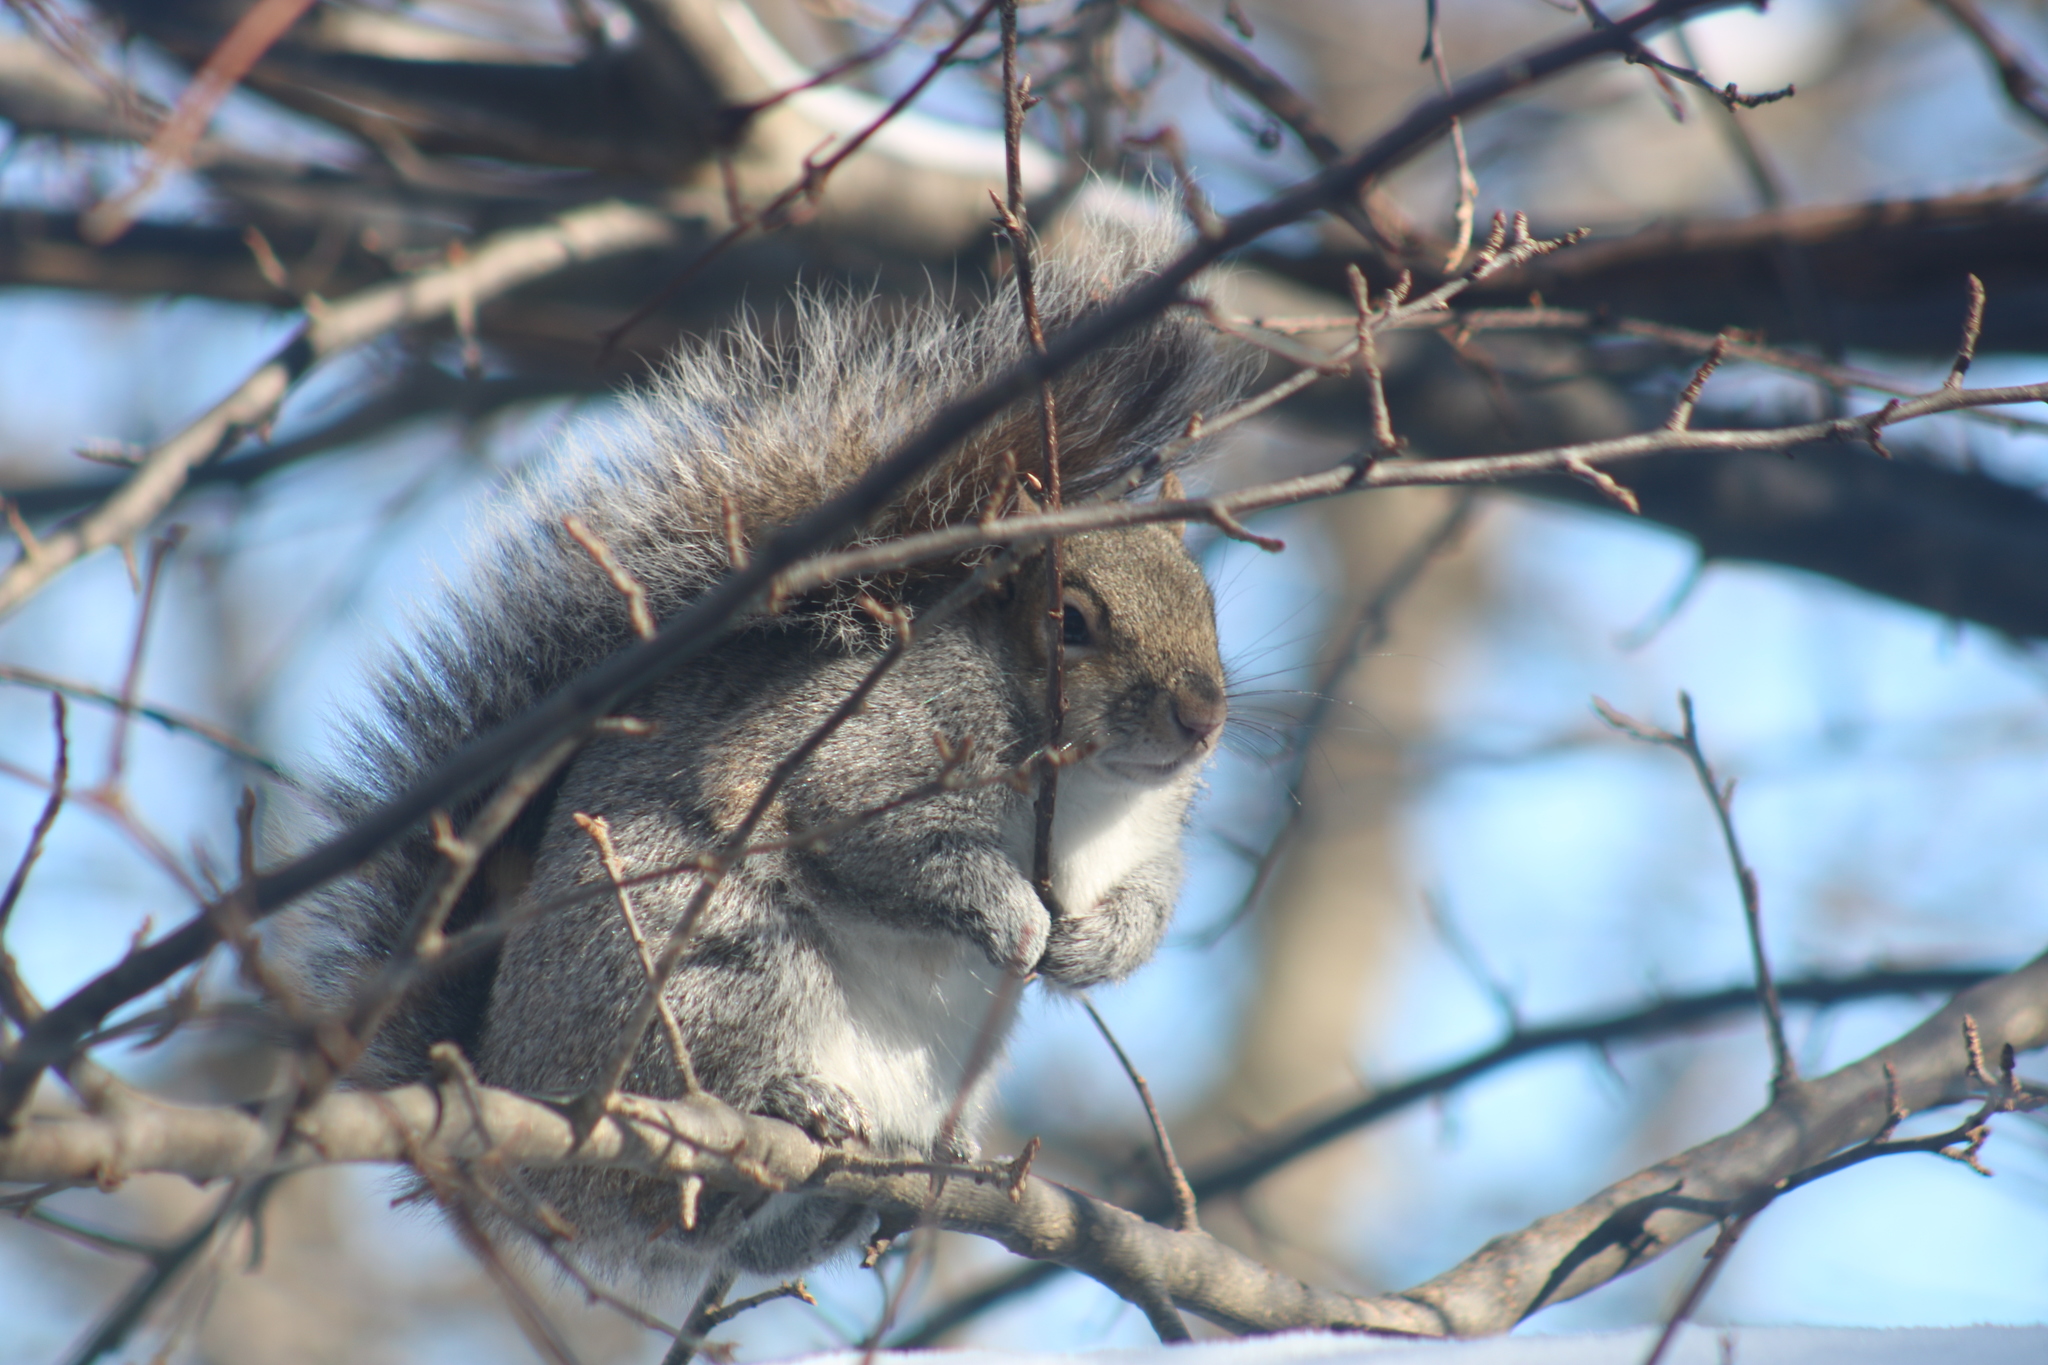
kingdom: Animalia
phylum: Chordata
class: Mammalia
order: Rodentia
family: Sciuridae
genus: Sciurus
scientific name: Sciurus carolinensis
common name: Eastern gray squirrel
